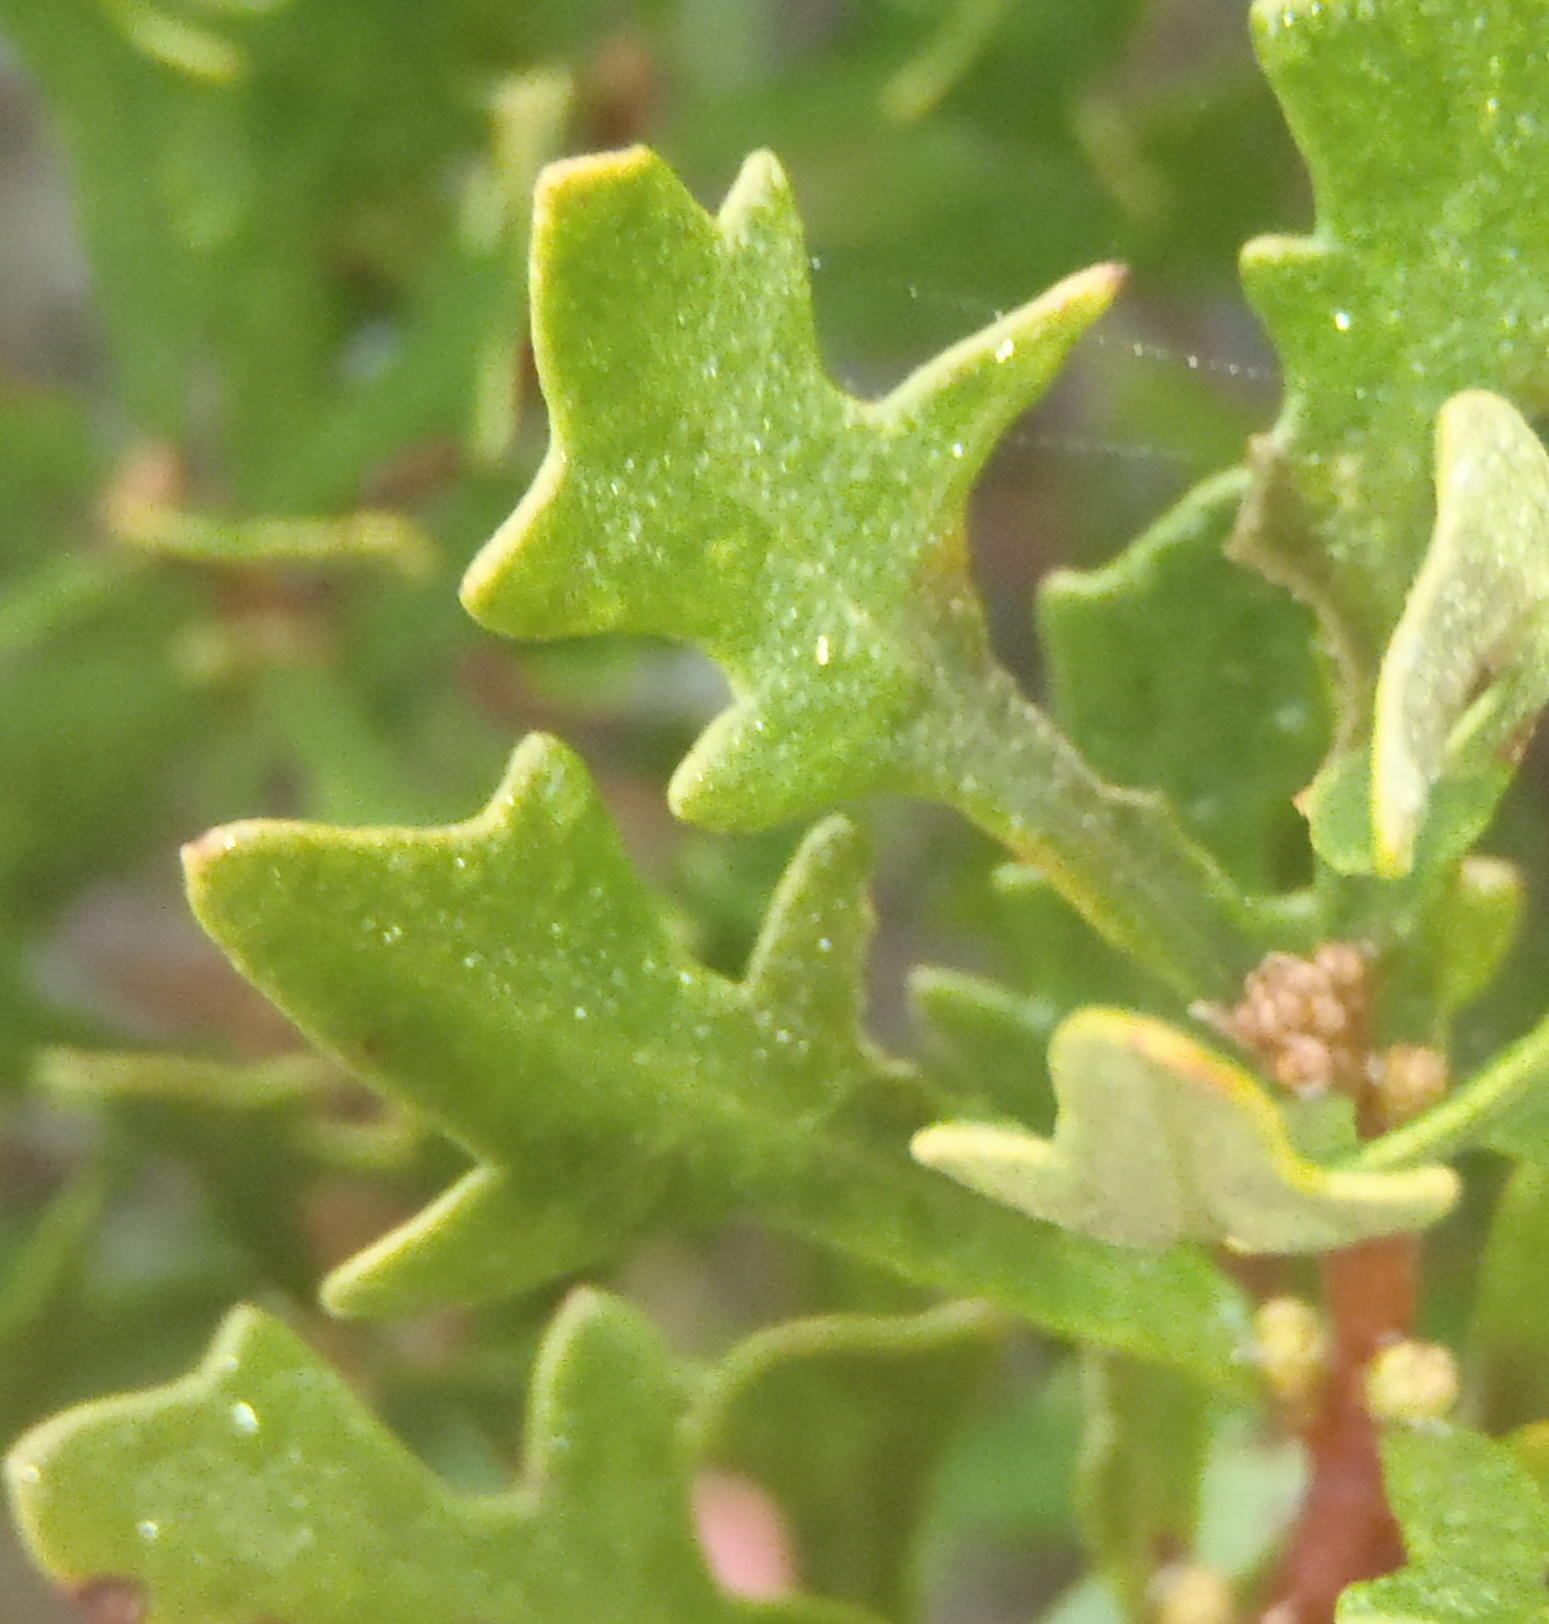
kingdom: Plantae
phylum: Tracheophyta
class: Magnoliopsida
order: Fagales
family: Myricaceae
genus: Morella
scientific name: Morella quercifolia
